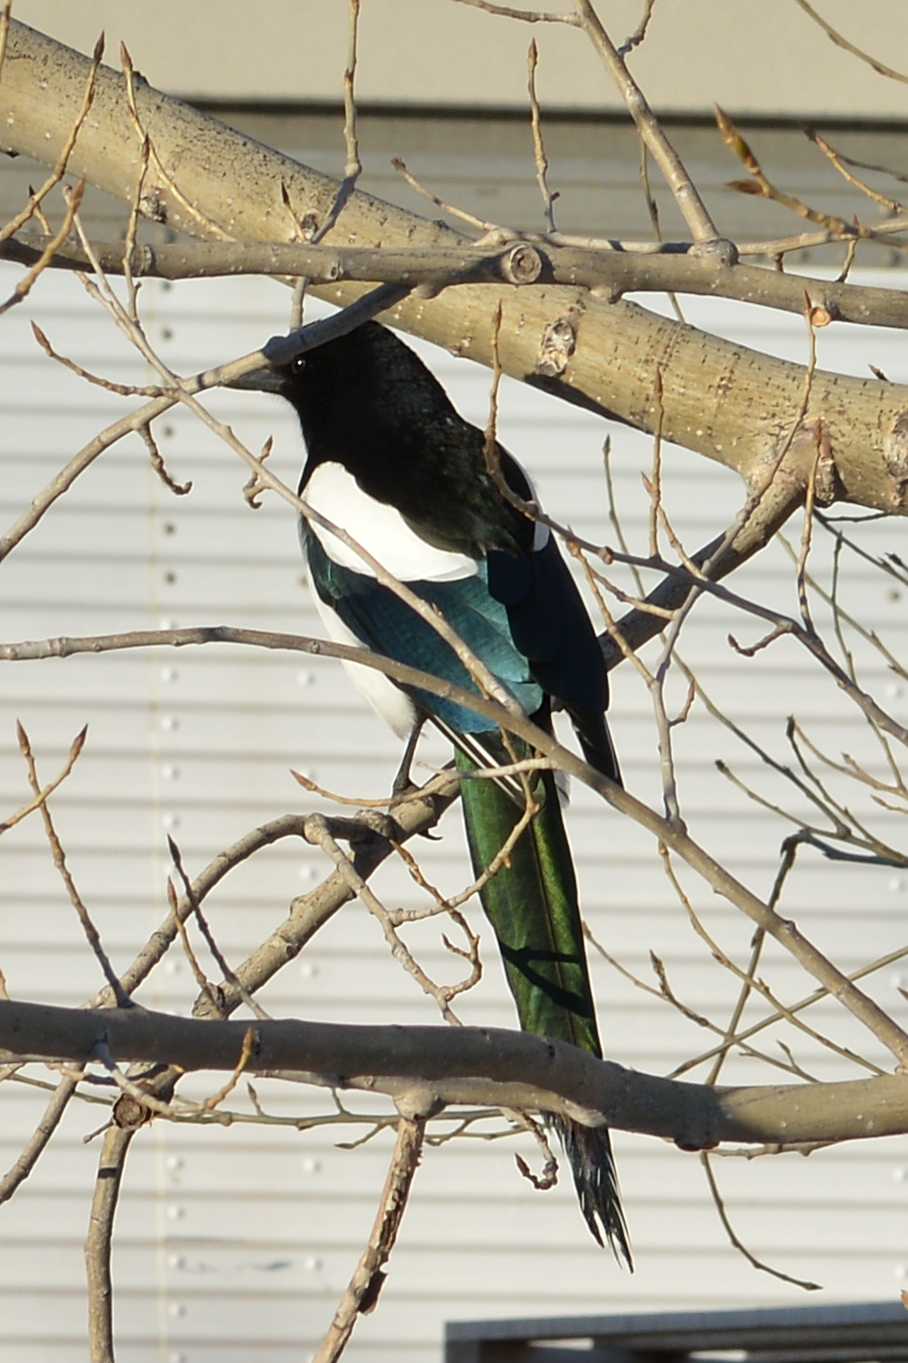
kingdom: Animalia
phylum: Chordata
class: Aves
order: Passeriformes
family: Corvidae
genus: Pica
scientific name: Pica hudsonia
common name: Black-billed magpie
